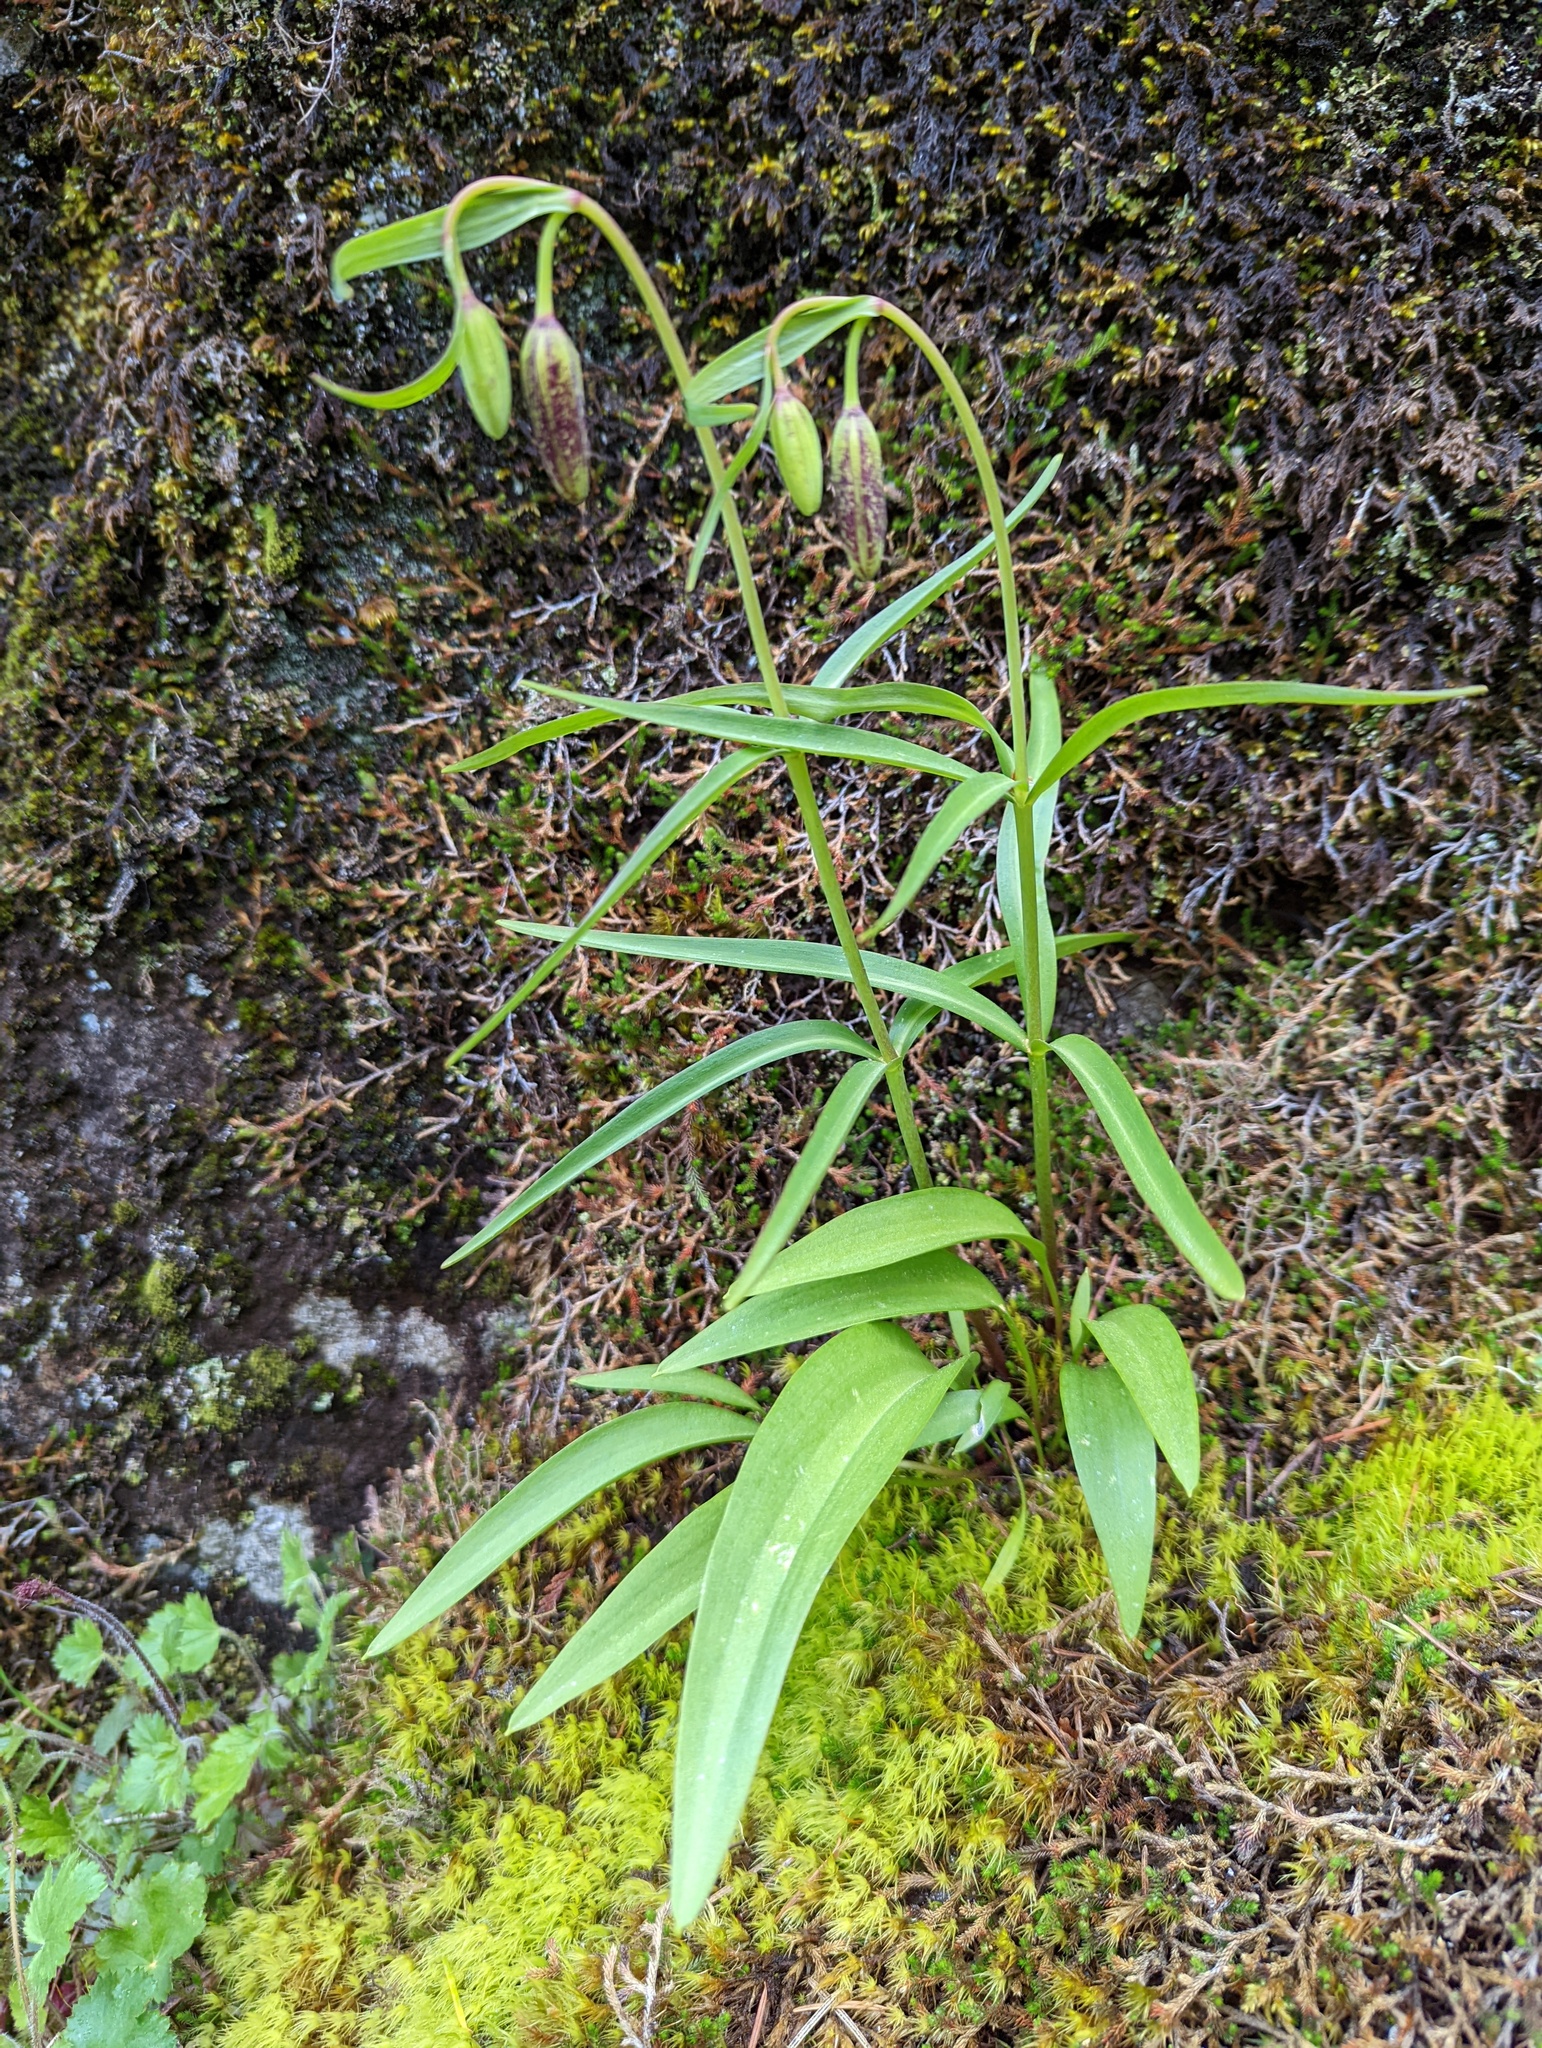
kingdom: Plantae
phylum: Tracheophyta
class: Liliopsida
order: Liliales
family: Liliaceae
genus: Fritillaria
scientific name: Fritillaria affinis
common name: Ojai fritillary
